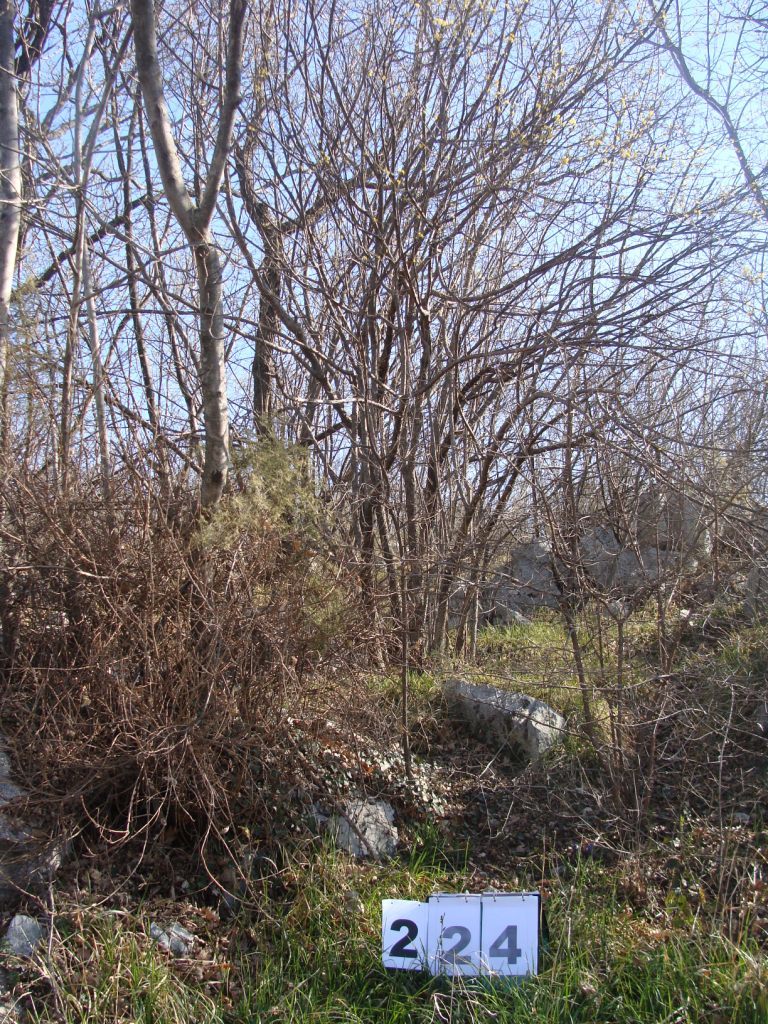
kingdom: Plantae
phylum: Tracheophyta
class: Magnoliopsida
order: Cornales
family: Cornaceae
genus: Cornus
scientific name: Cornus mas
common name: Cornelian-cherry
